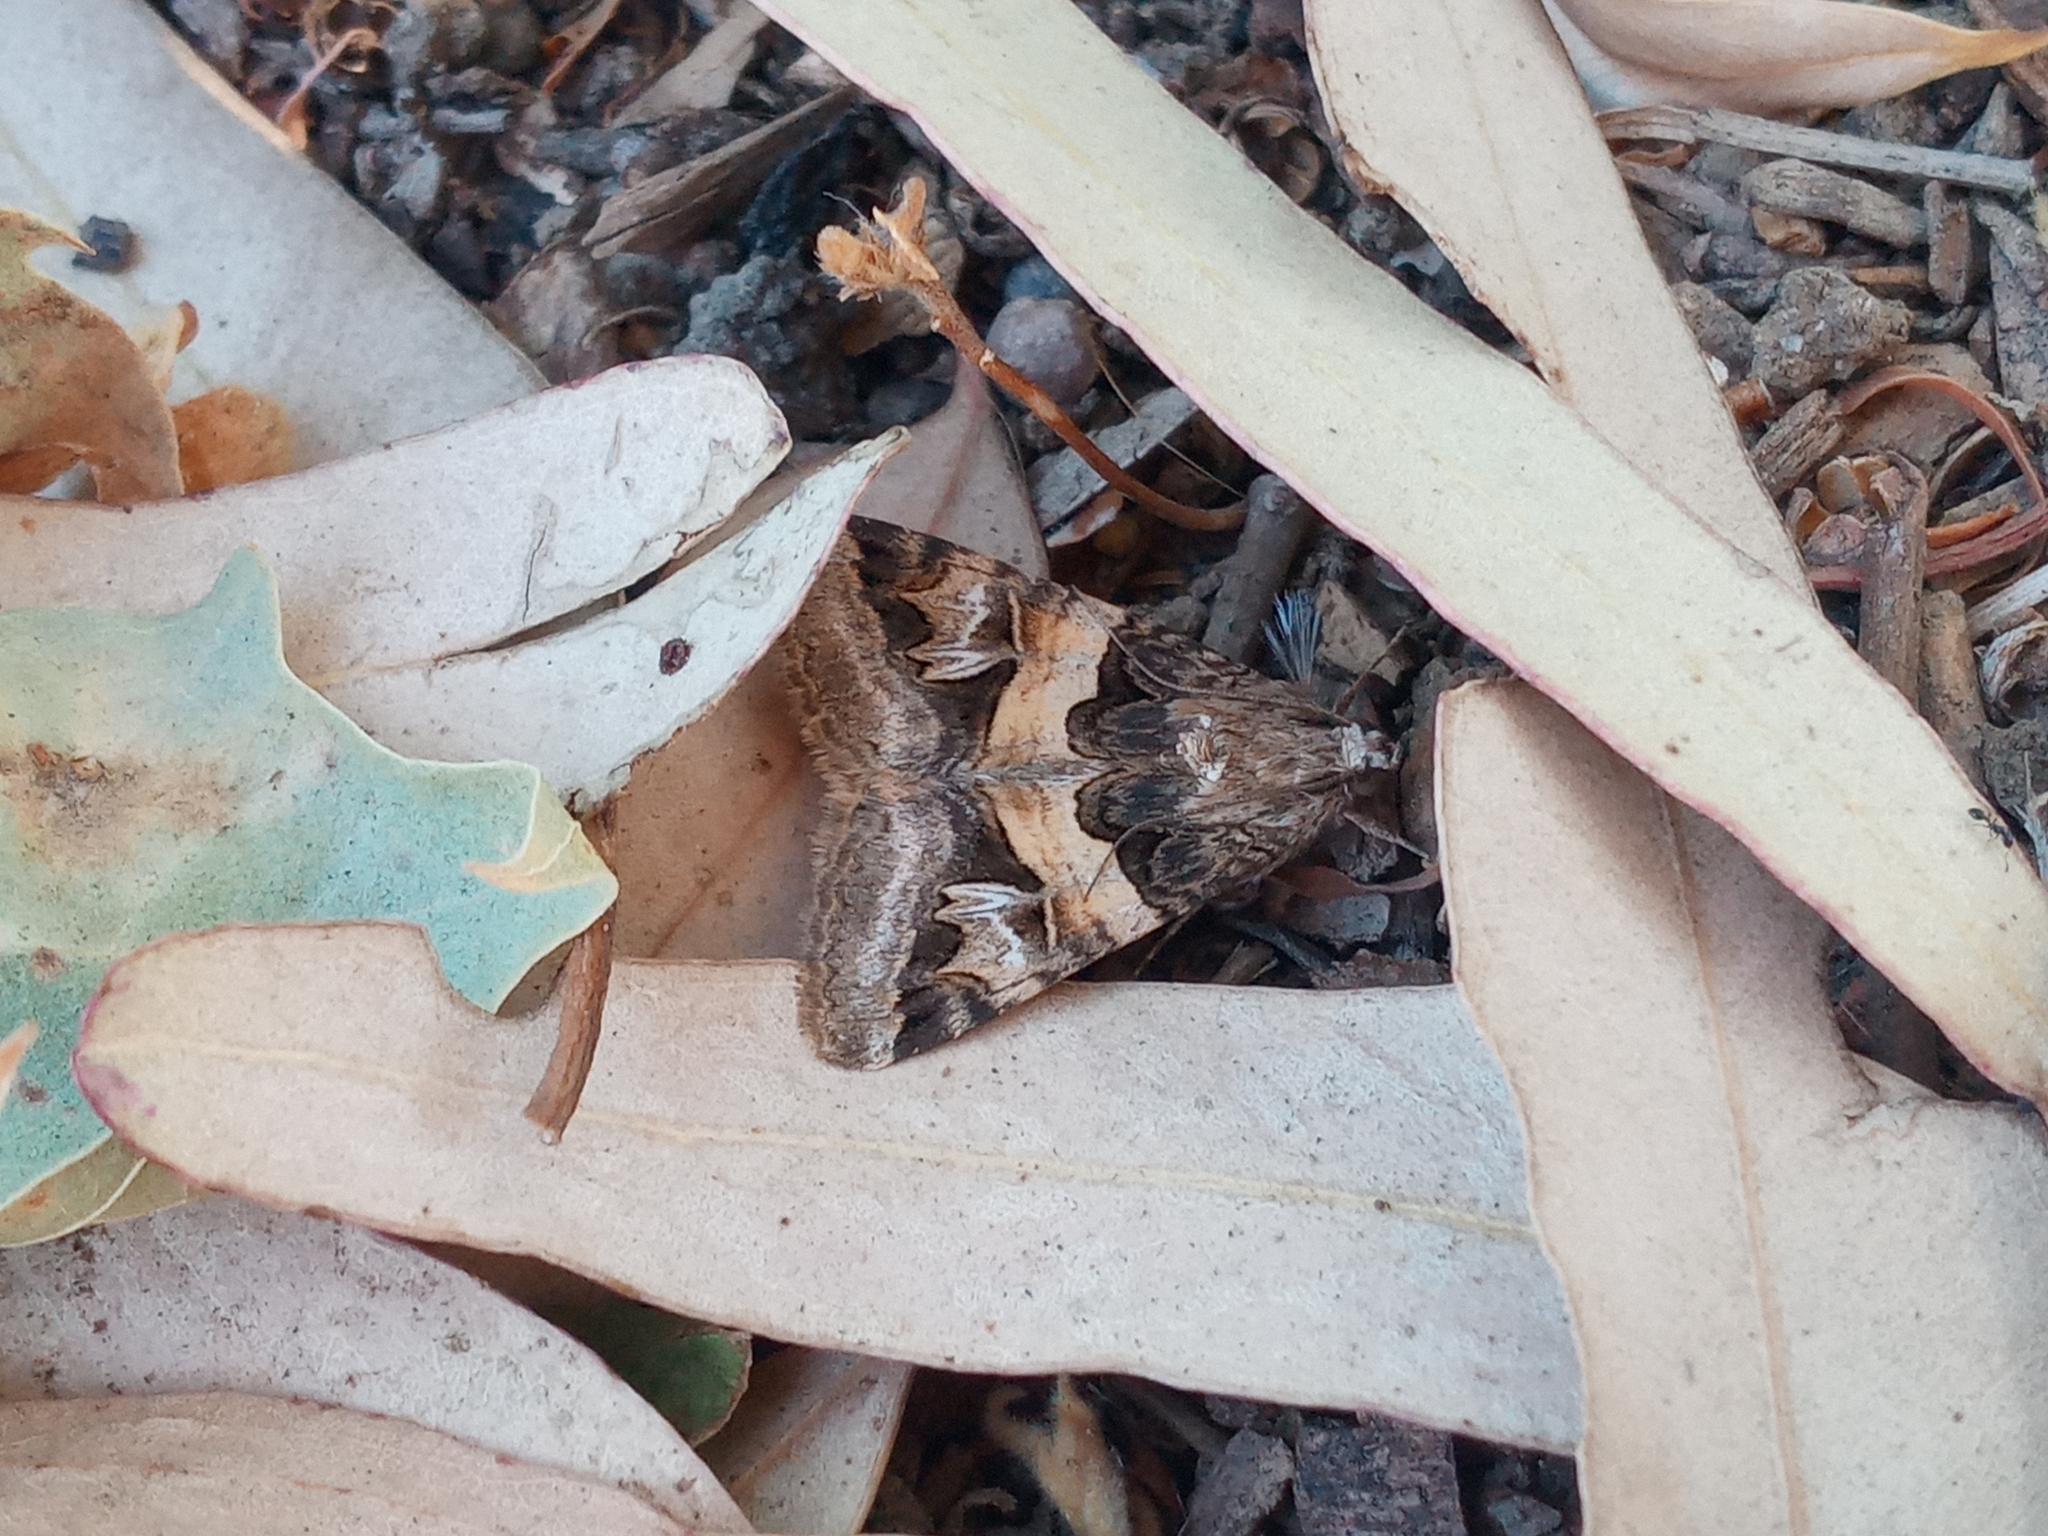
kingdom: Animalia
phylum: Arthropoda
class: Insecta
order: Lepidoptera
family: Erebidae
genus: Drasteria
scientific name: Drasteria divergens
